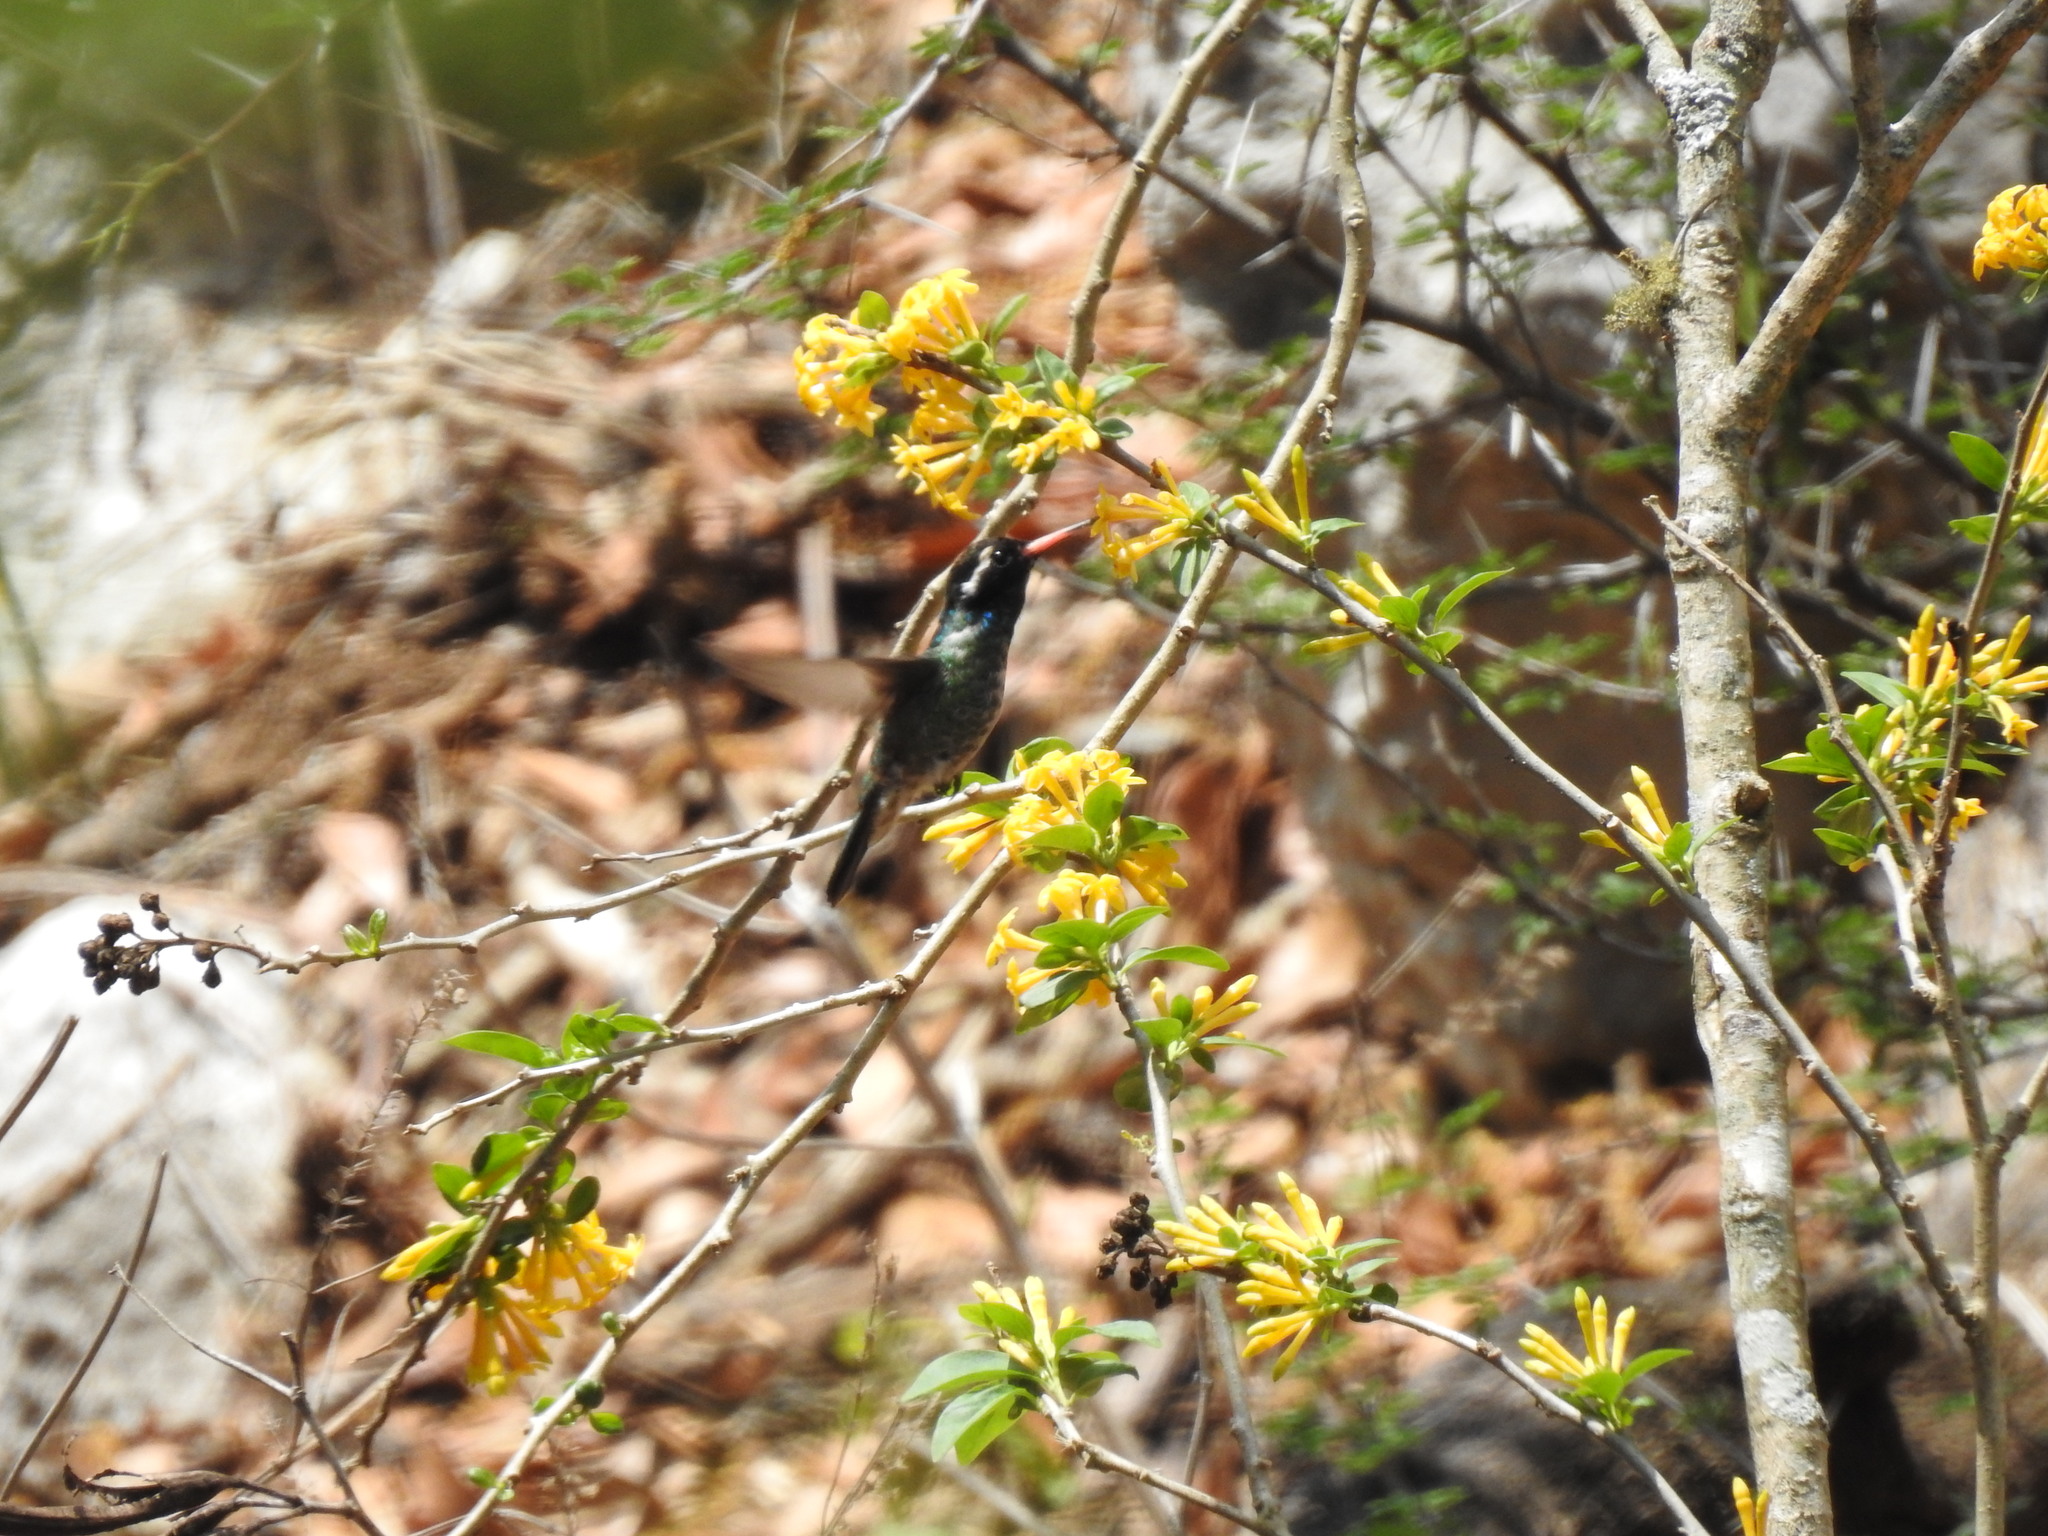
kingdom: Animalia
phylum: Chordata
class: Aves
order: Apodiformes
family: Trochilidae
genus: Basilinna
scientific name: Basilinna leucotis
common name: White-eared hummingbird
